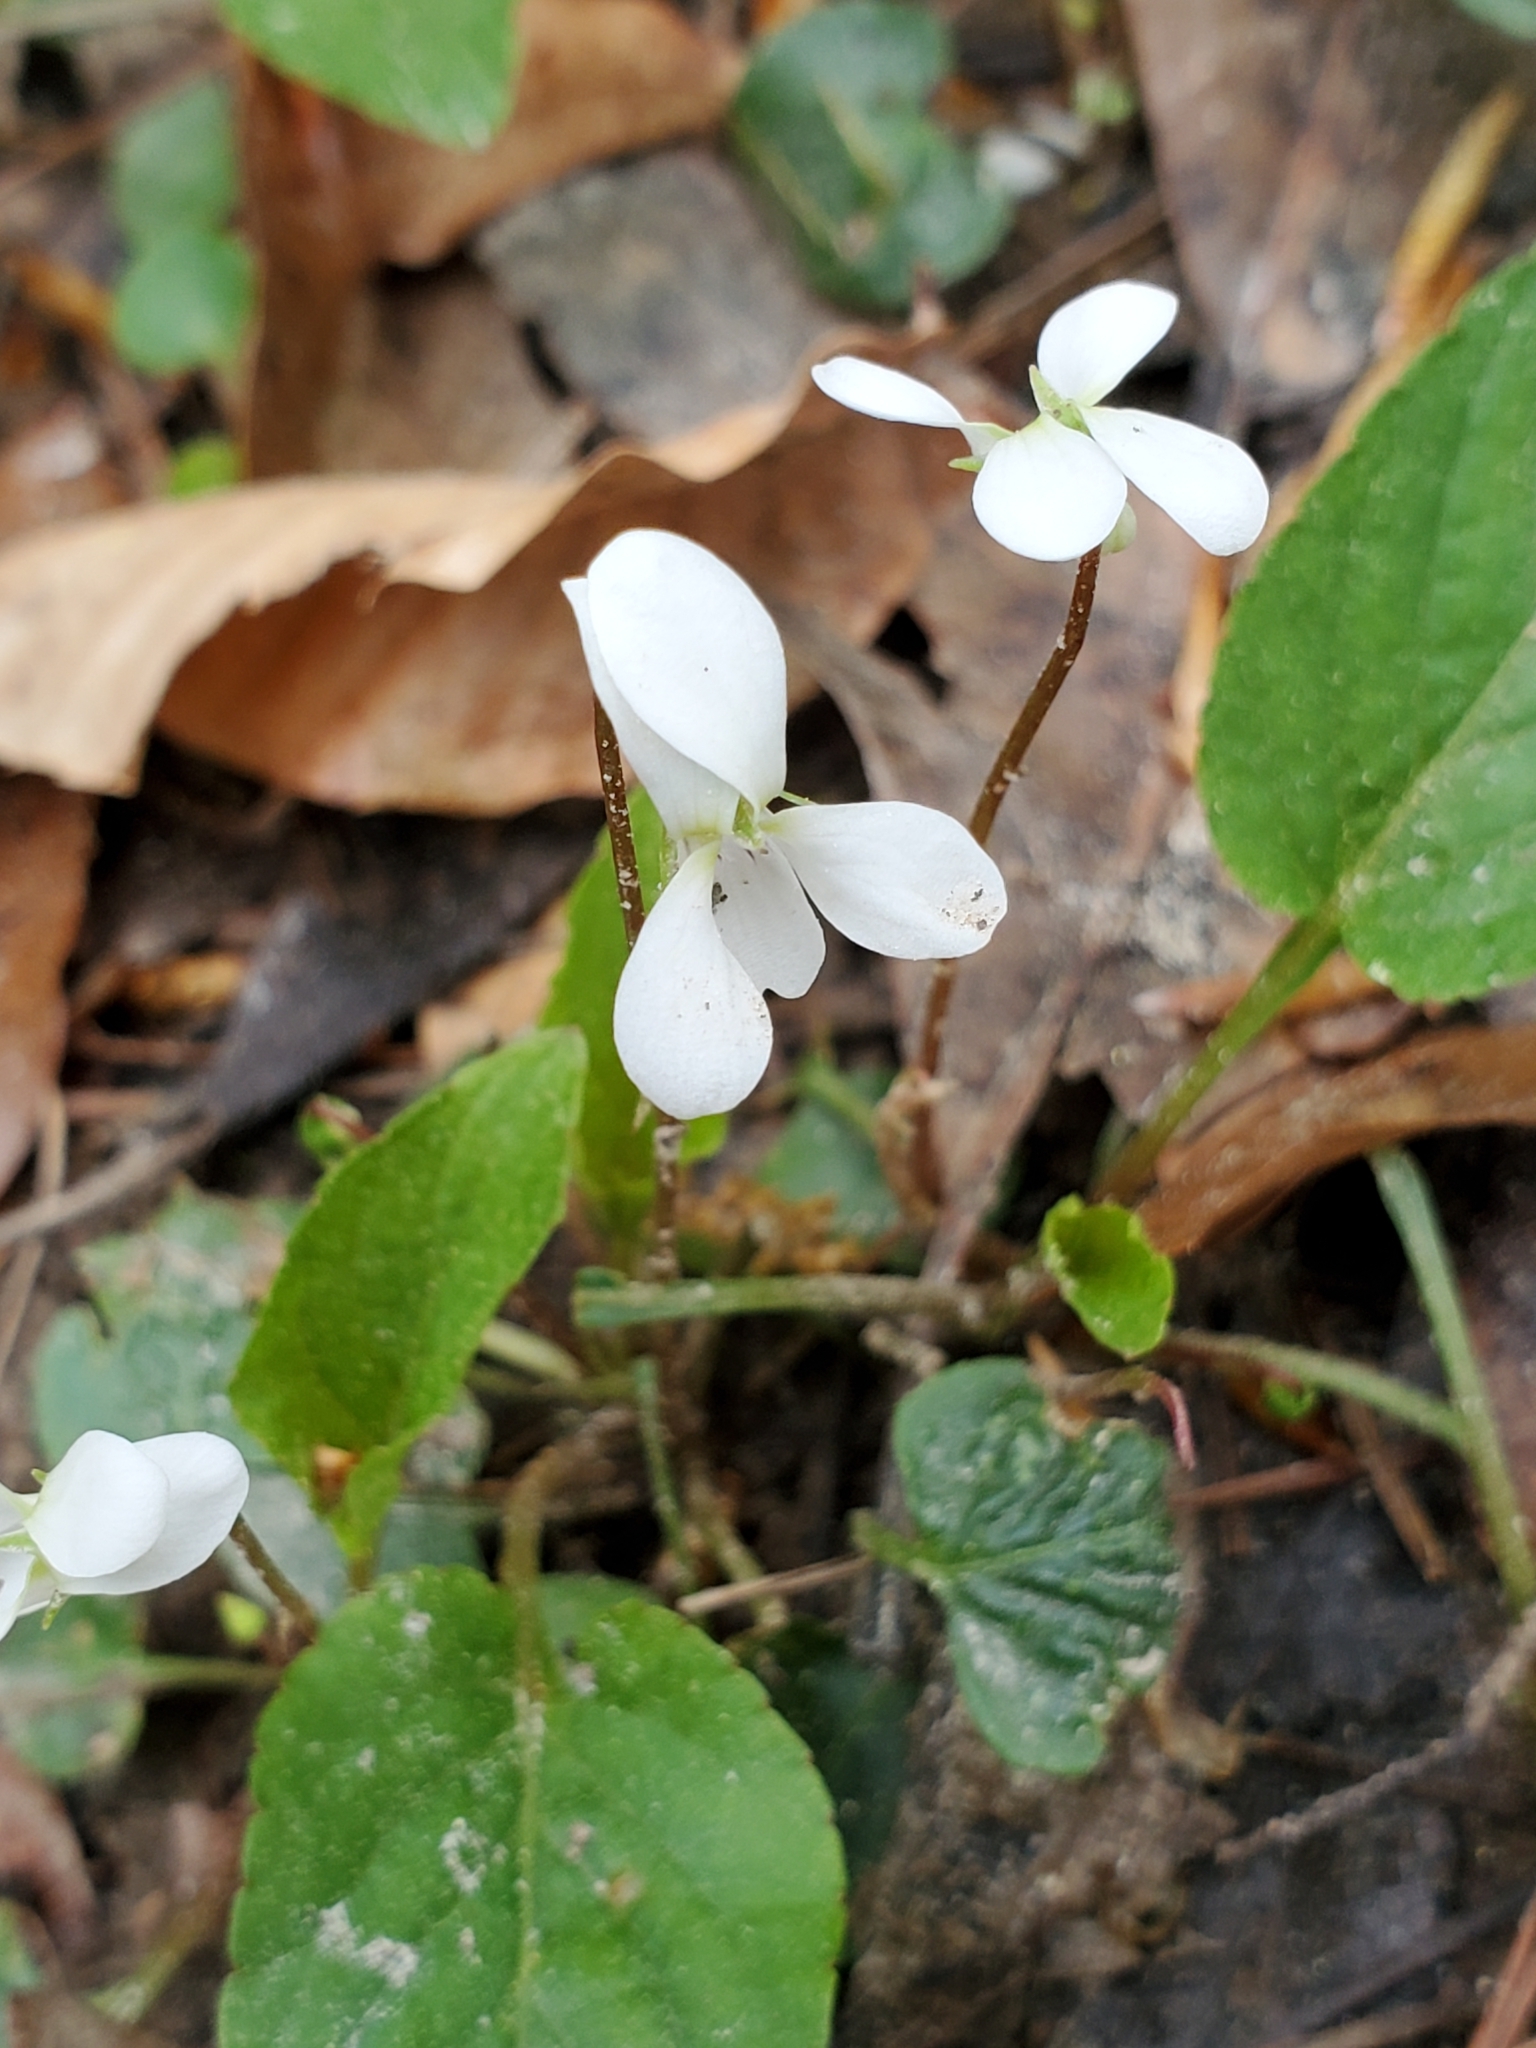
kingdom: Plantae
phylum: Tracheophyta
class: Magnoliopsida
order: Malpighiales
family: Violaceae
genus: Viola
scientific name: Viola primulifolia
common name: Primrose-leaf violet
